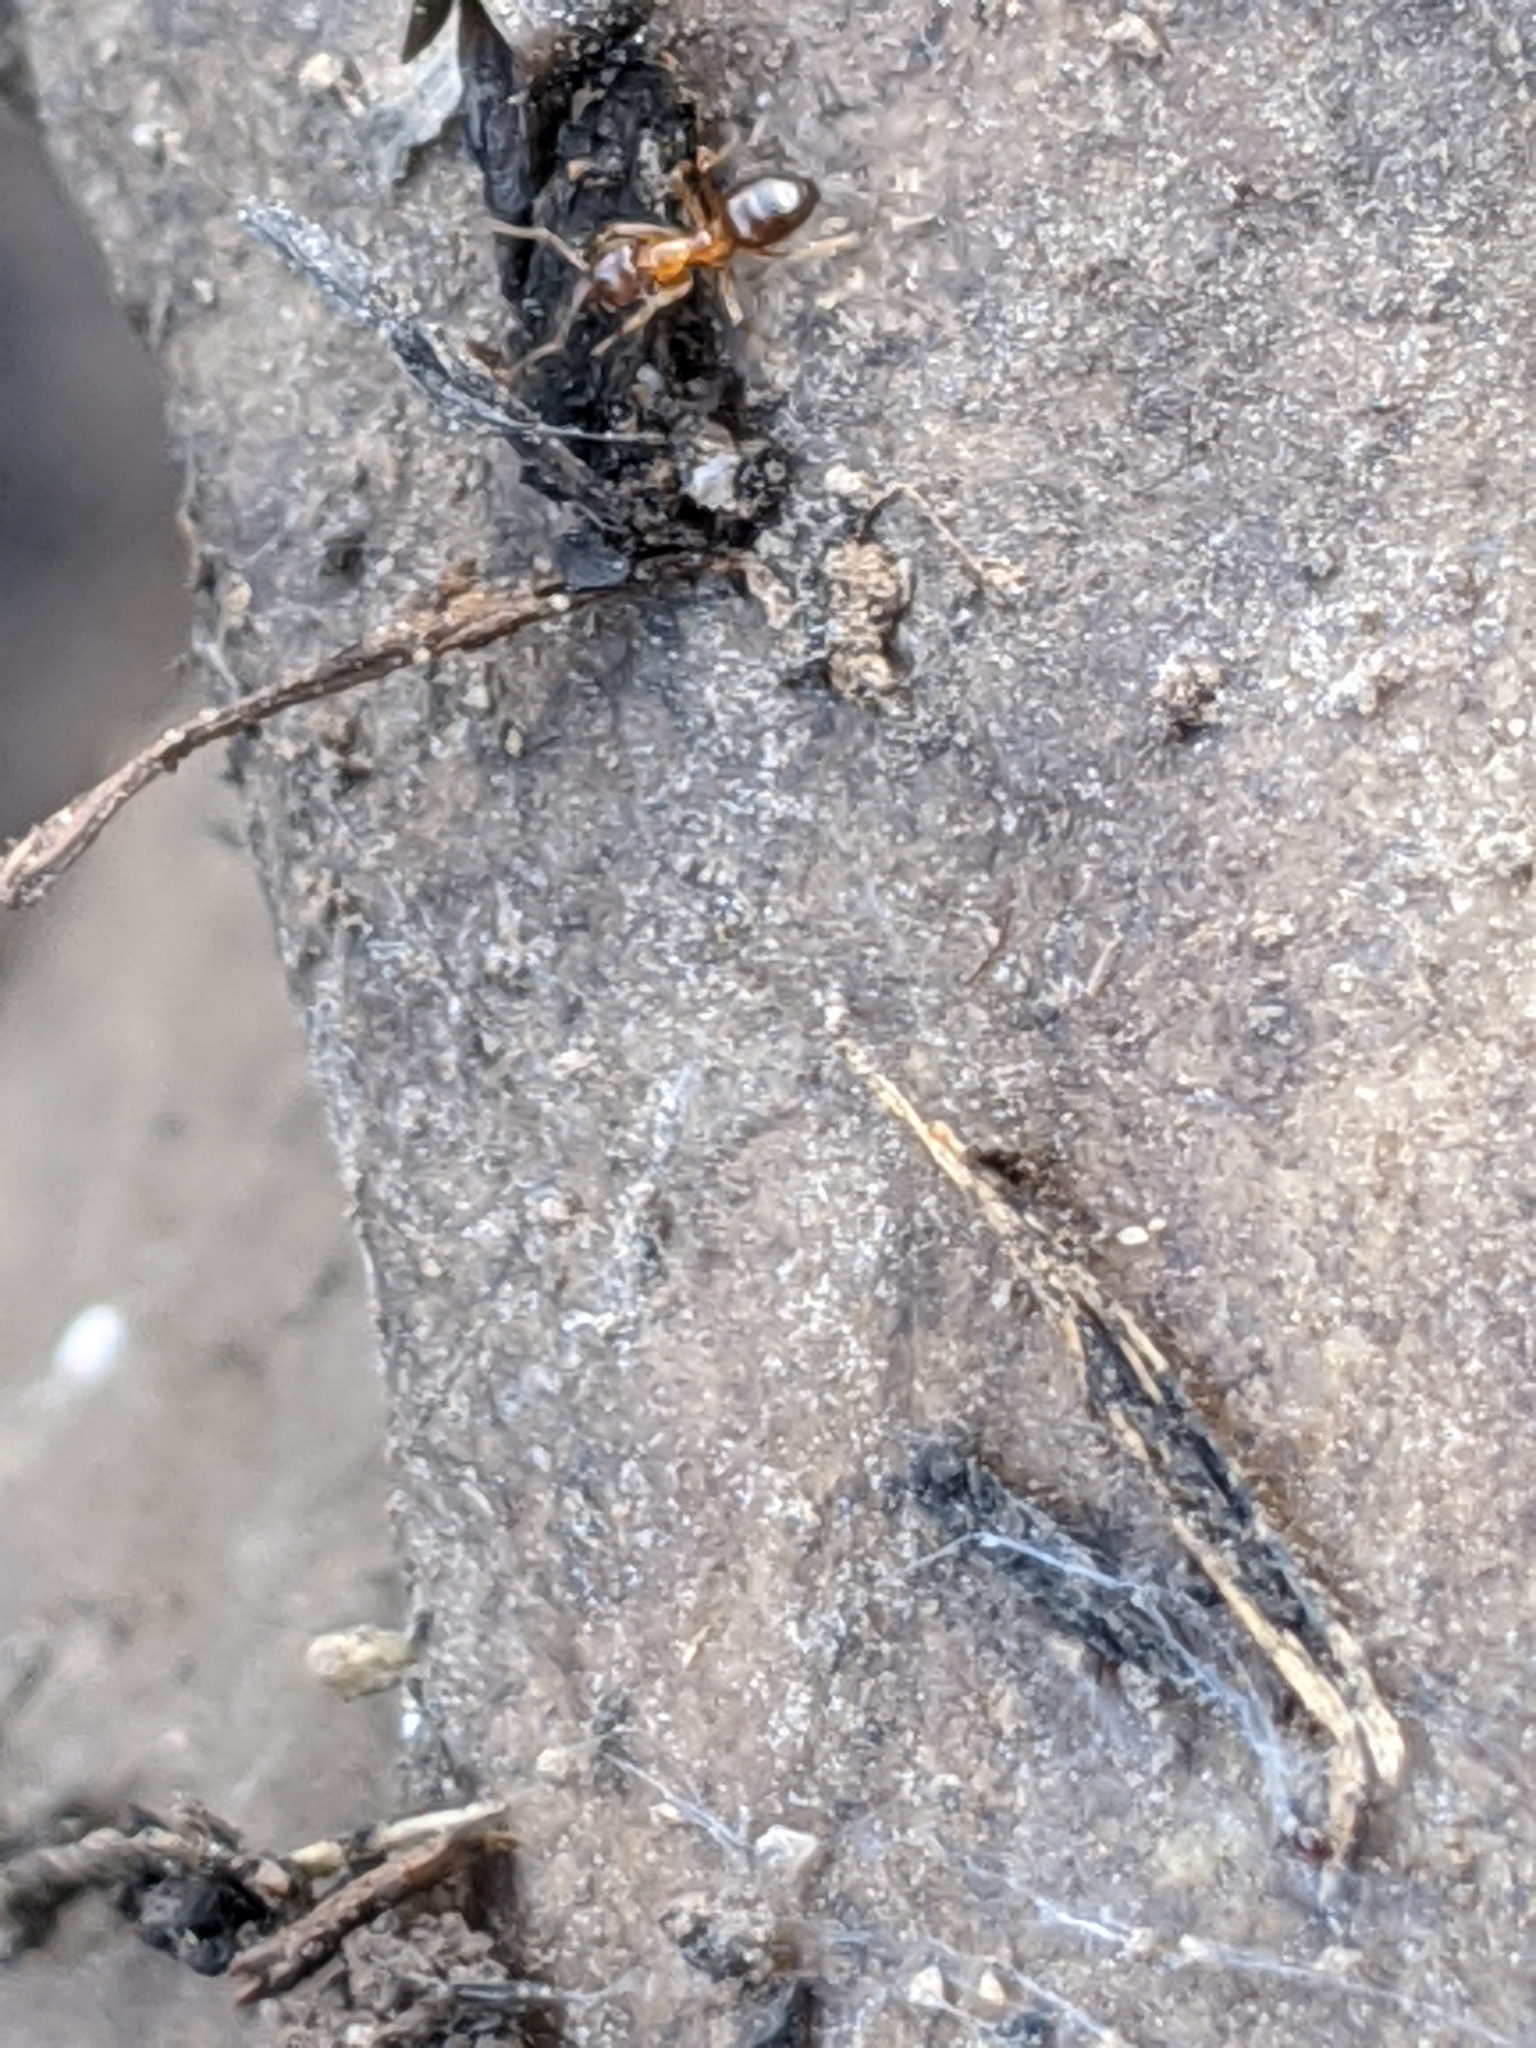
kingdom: Animalia
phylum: Arthropoda
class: Insecta
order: Hymenoptera
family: Formicidae
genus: Nylanderia
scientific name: Nylanderia
